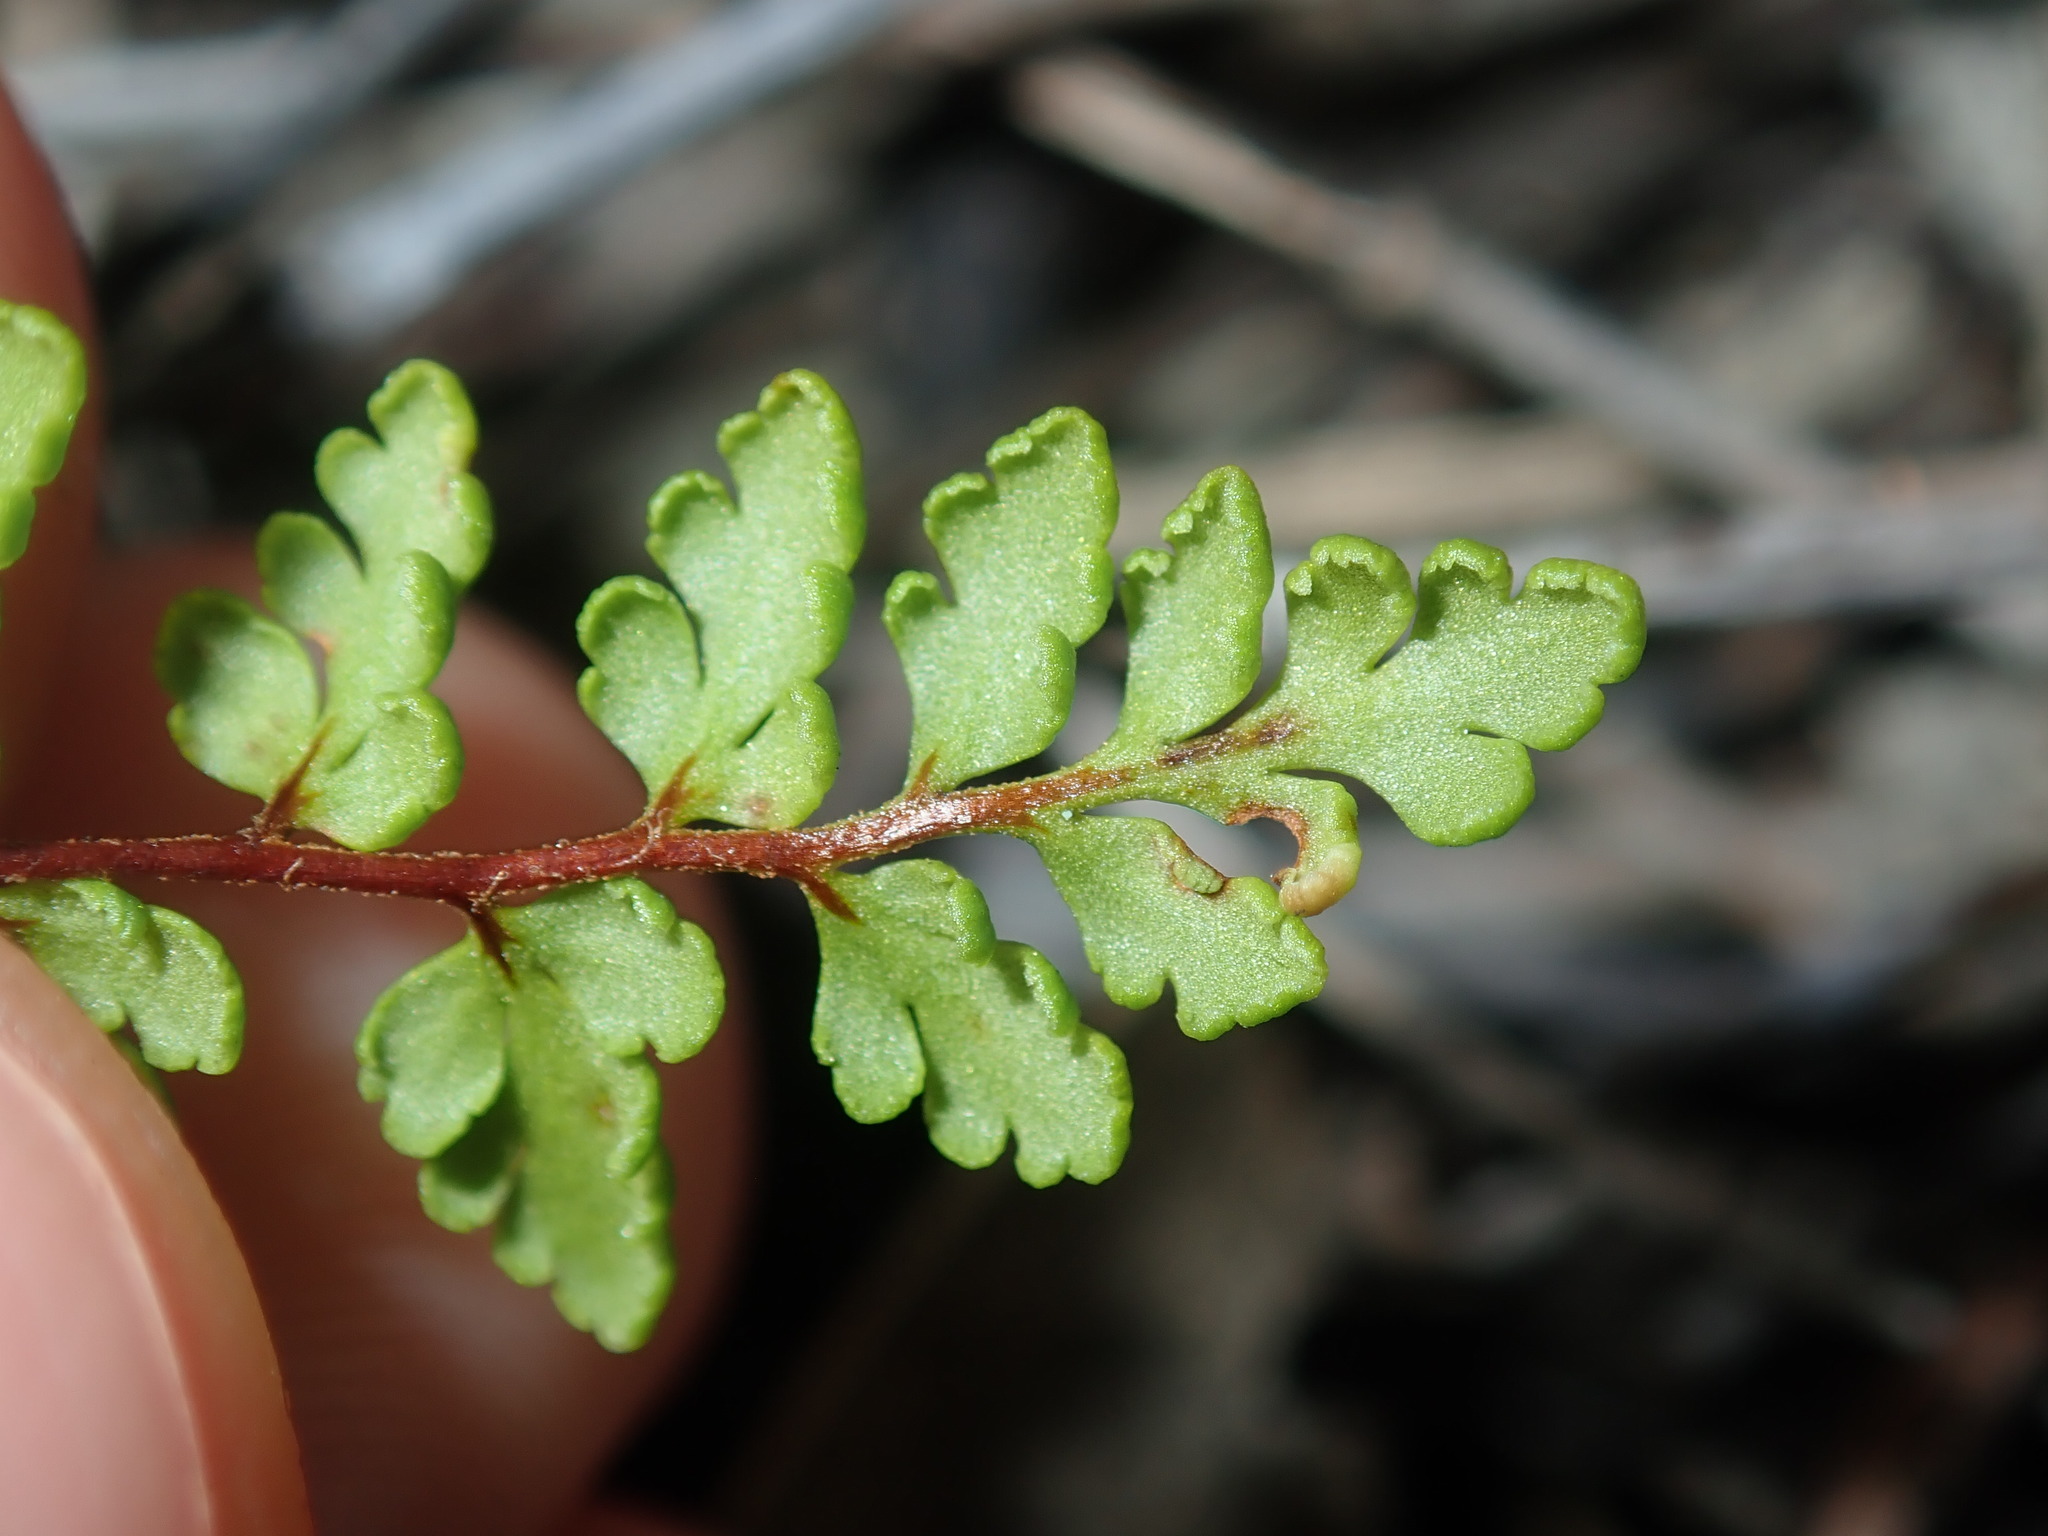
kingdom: Plantae
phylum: Tracheophyta
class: Polypodiopsida
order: Polypodiales
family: Pteridaceae
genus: Cheilanthes
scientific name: Cheilanthes sieberi
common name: Mulga fern
